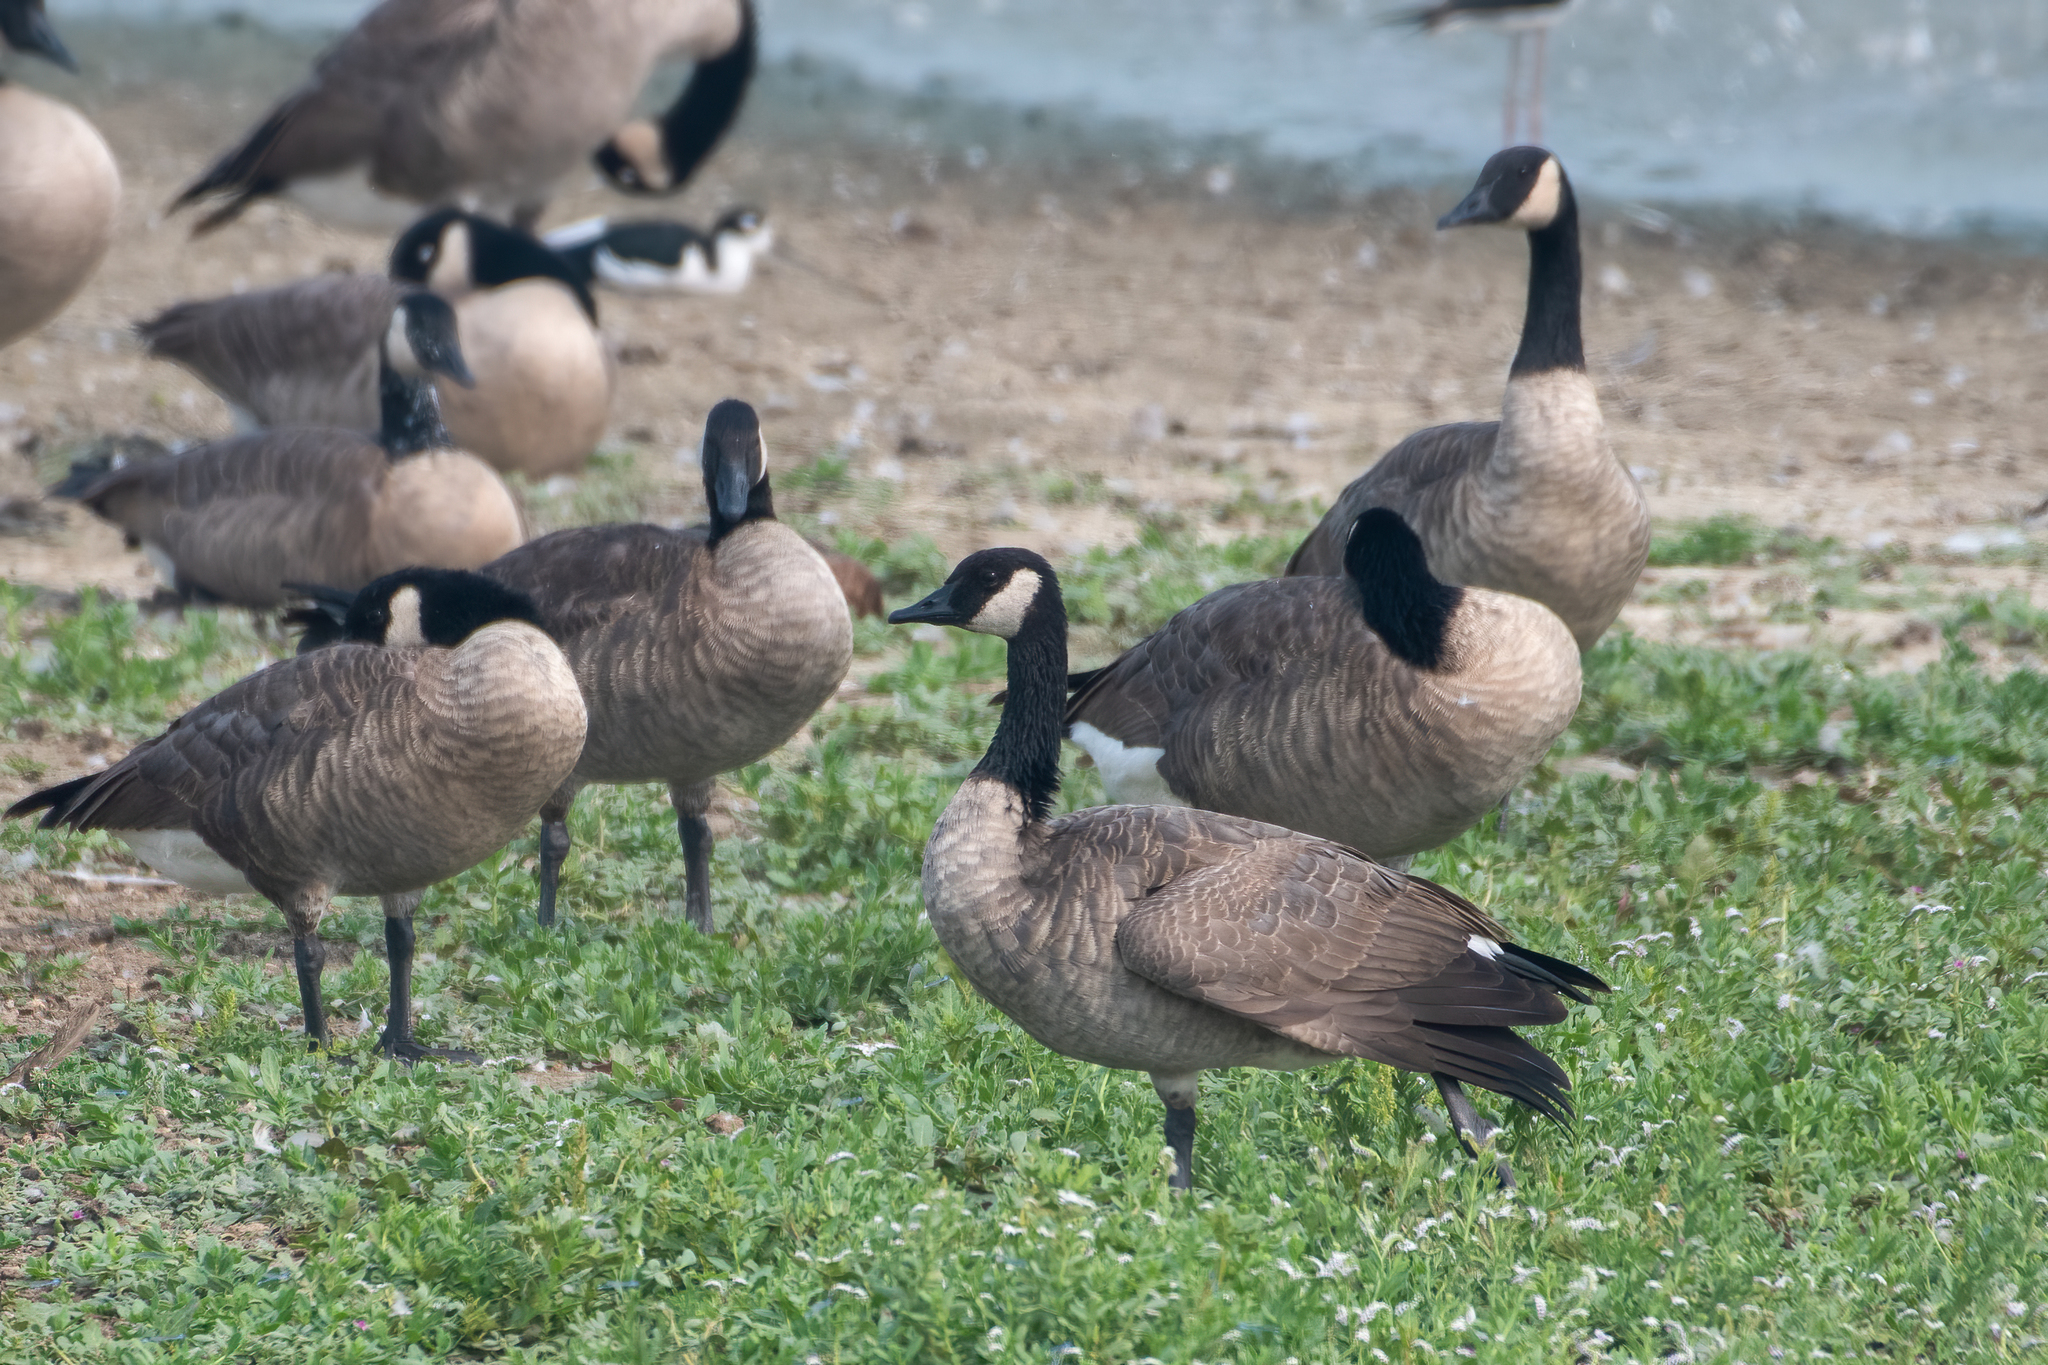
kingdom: Animalia
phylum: Chordata
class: Aves
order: Anseriformes
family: Anatidae
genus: Branta
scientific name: Branta canadensis
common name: Canada goose
